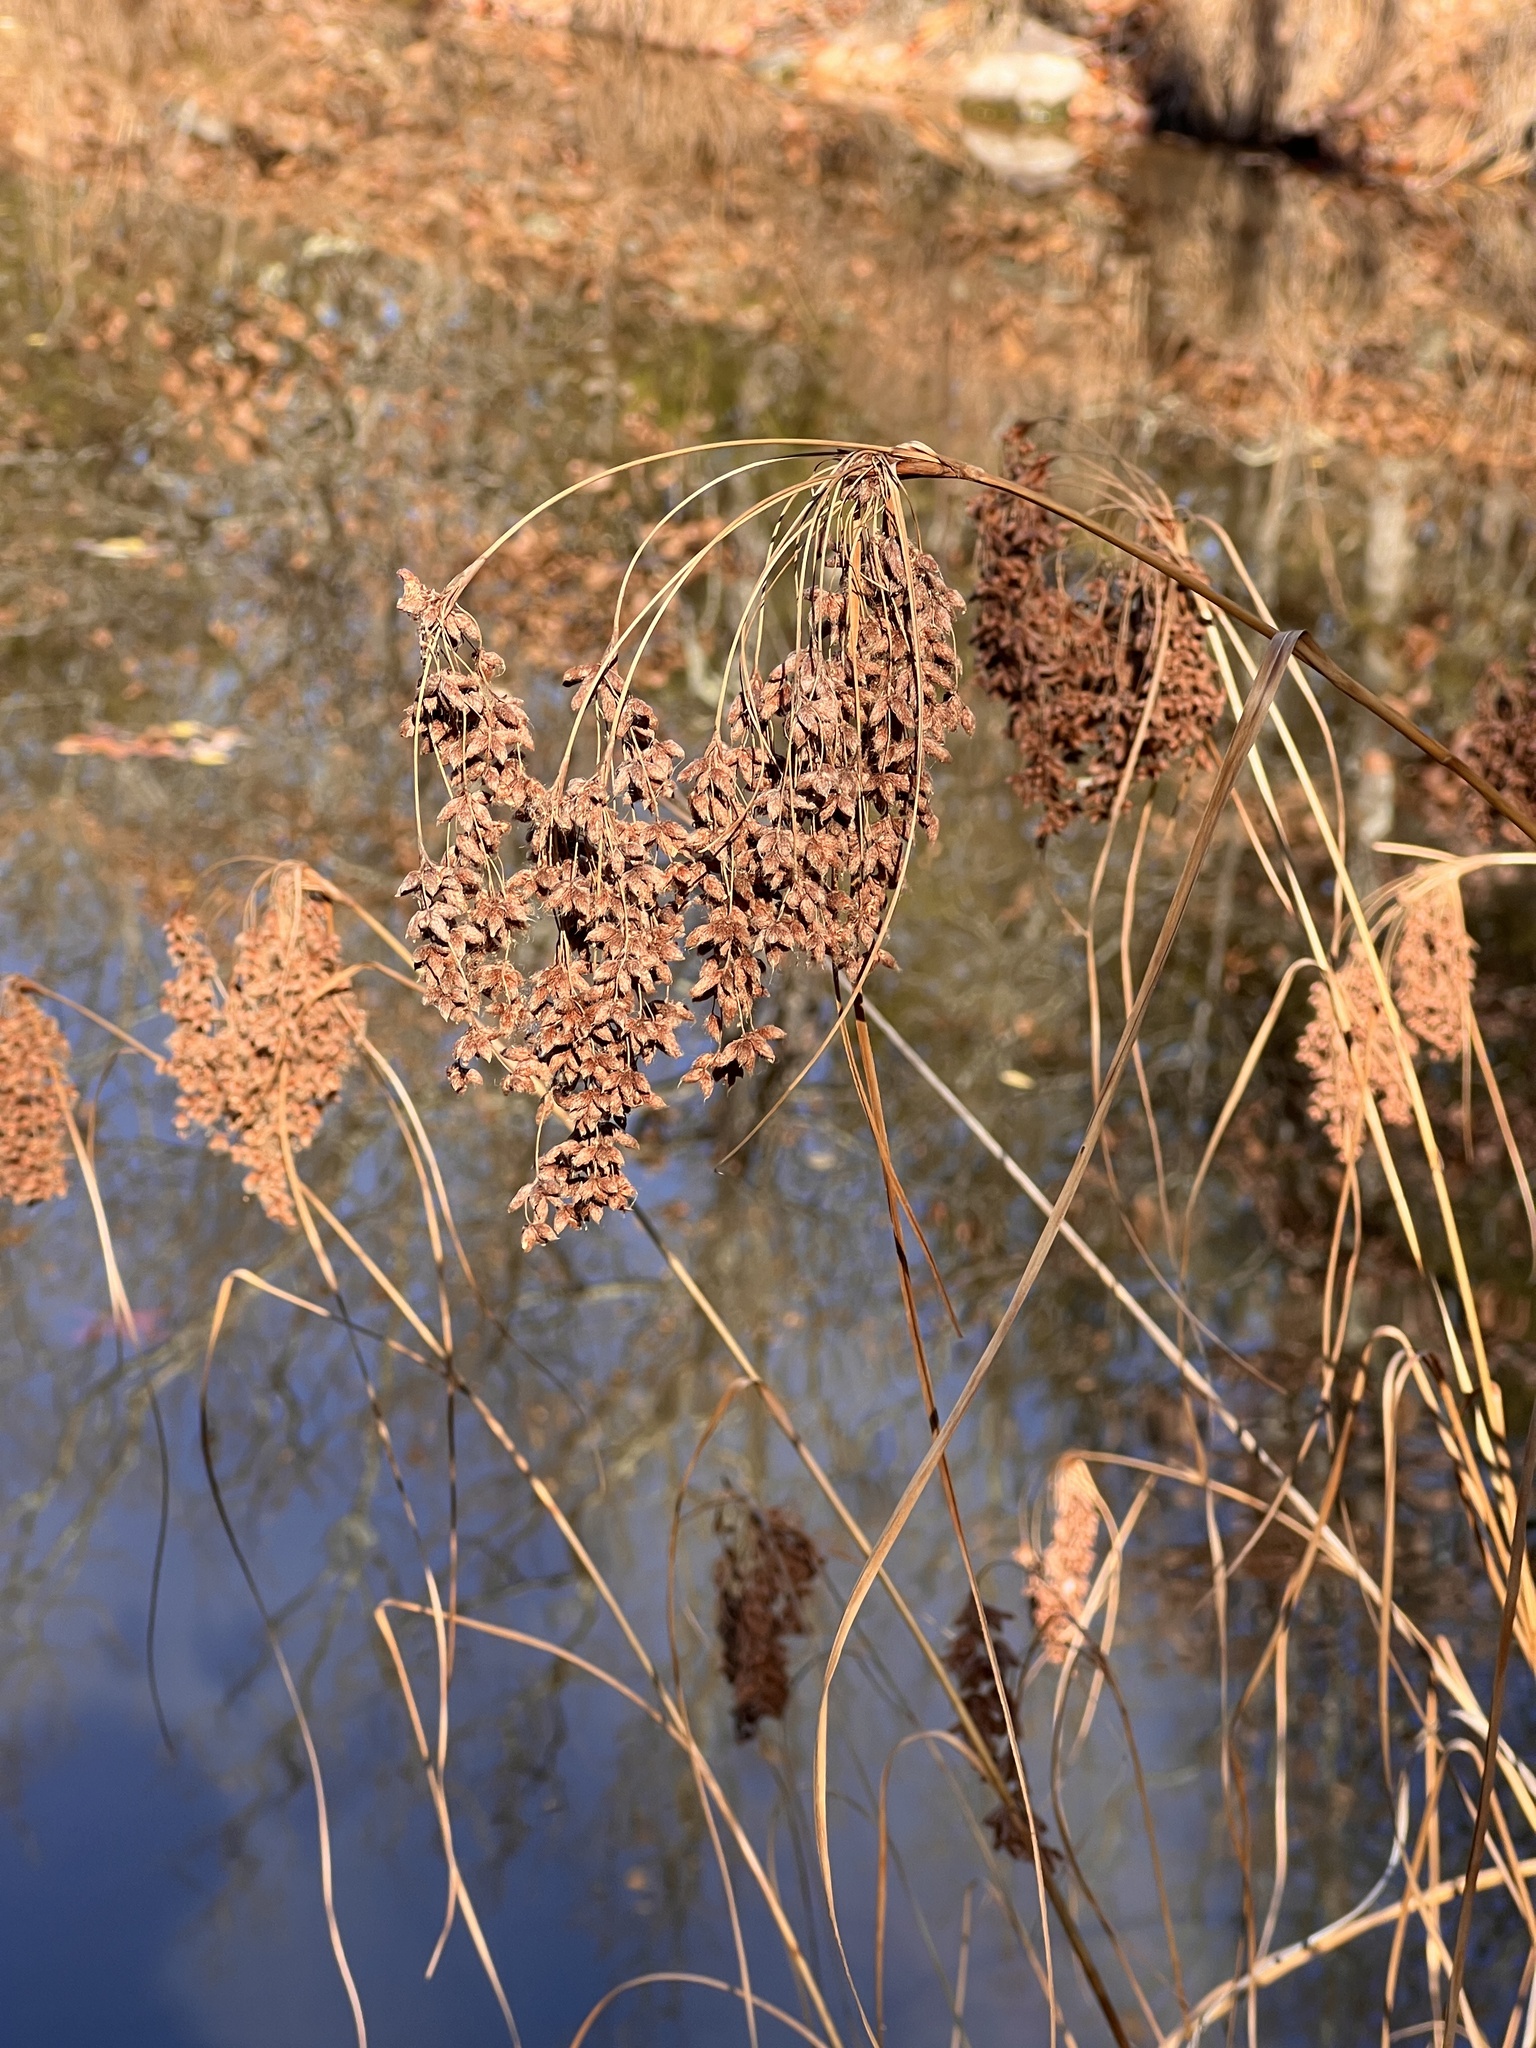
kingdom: Plantae
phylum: Tracheophyta
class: Liliopsida
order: Poales
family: Cyperaceae
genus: Scirpus
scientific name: Scirpus cyperinus
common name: Black-sheathed bulrush
